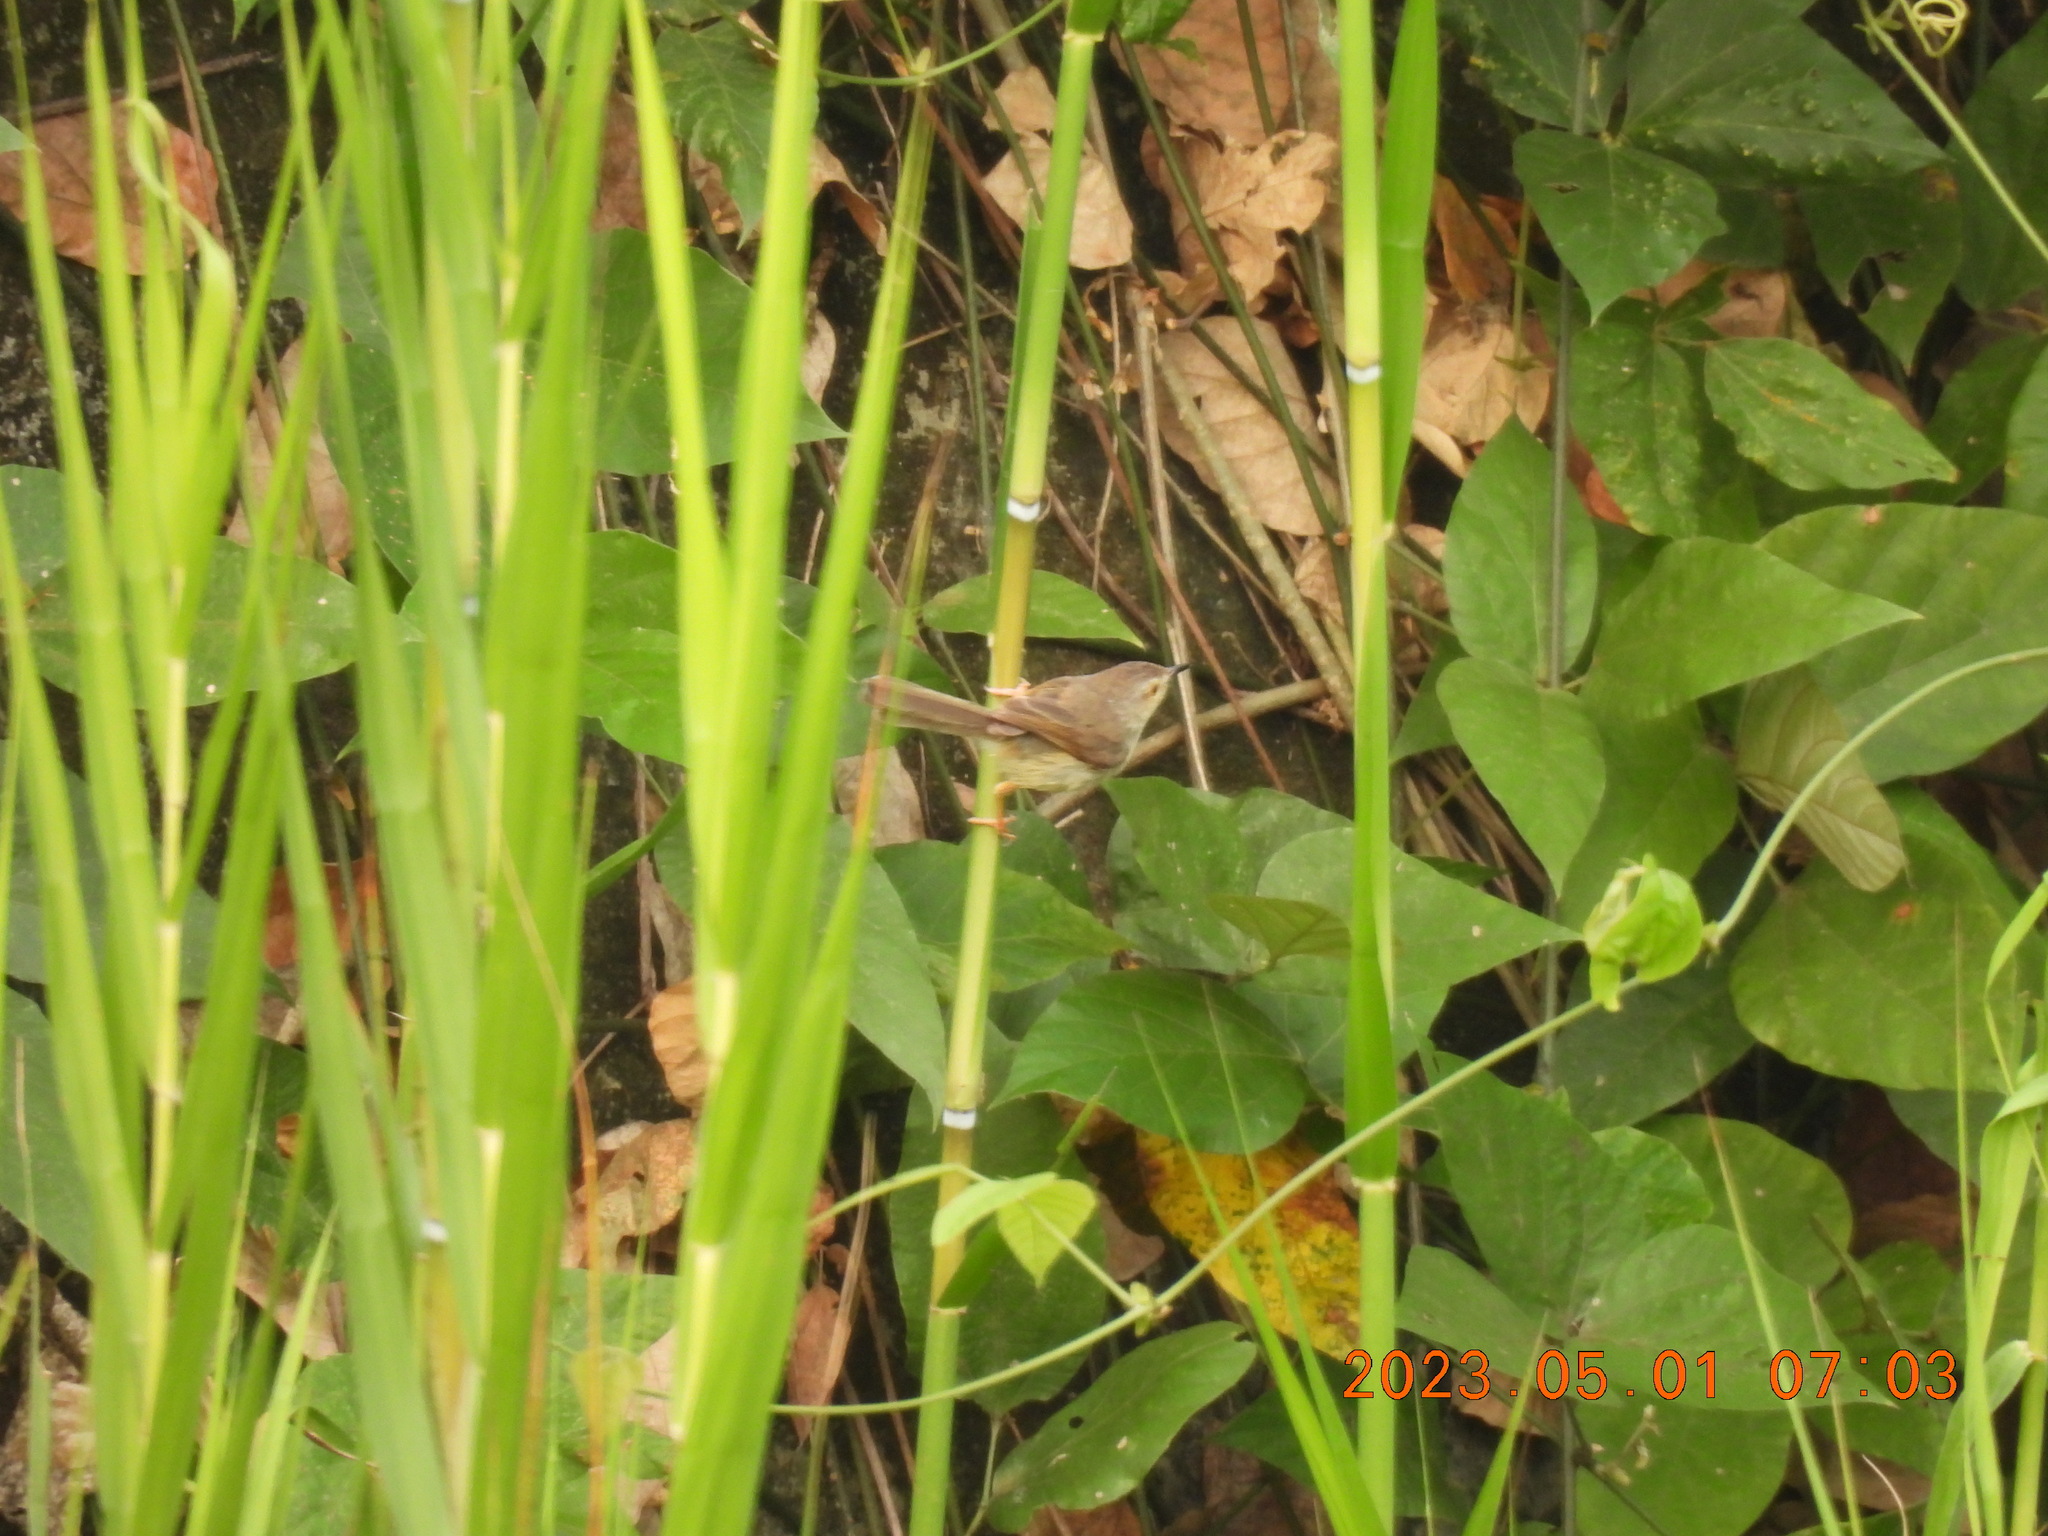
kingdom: Animalia
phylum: Chordata
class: Aves
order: Passeriformes
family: Cisticolidae
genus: Prinia
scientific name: Prinia inornata
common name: Plain prinia
